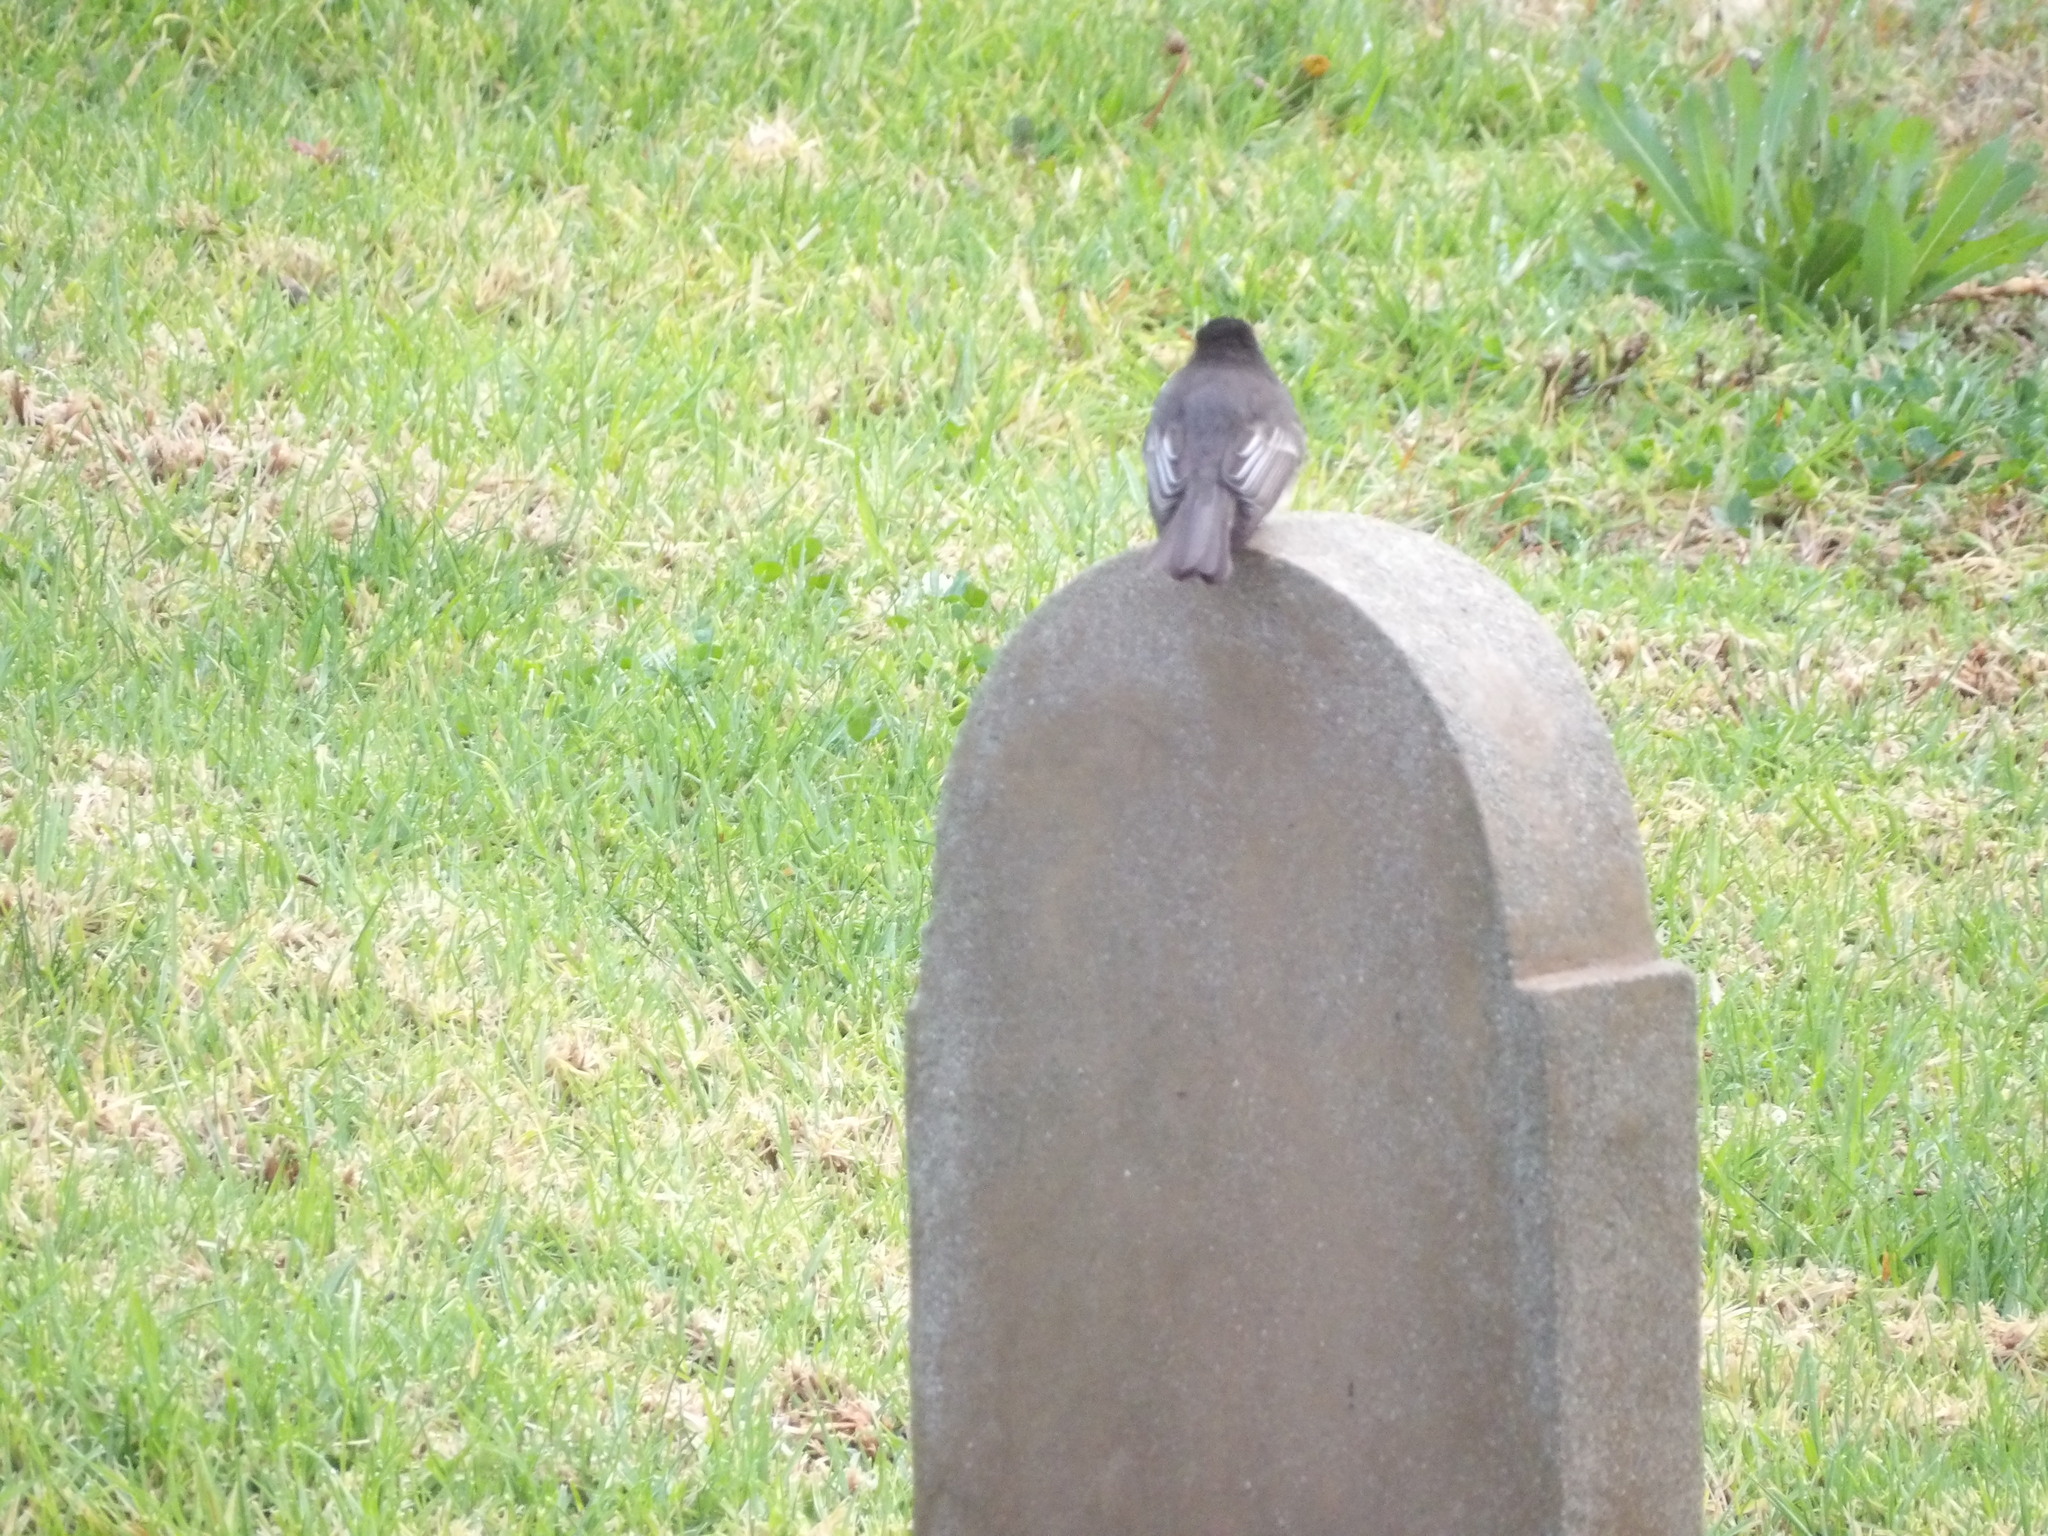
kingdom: Animalia
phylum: Chordata
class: Aves
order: Passeriformes
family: Tyrannidae
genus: Sayornis
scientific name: Sayornis nigricans
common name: Black phoebe
